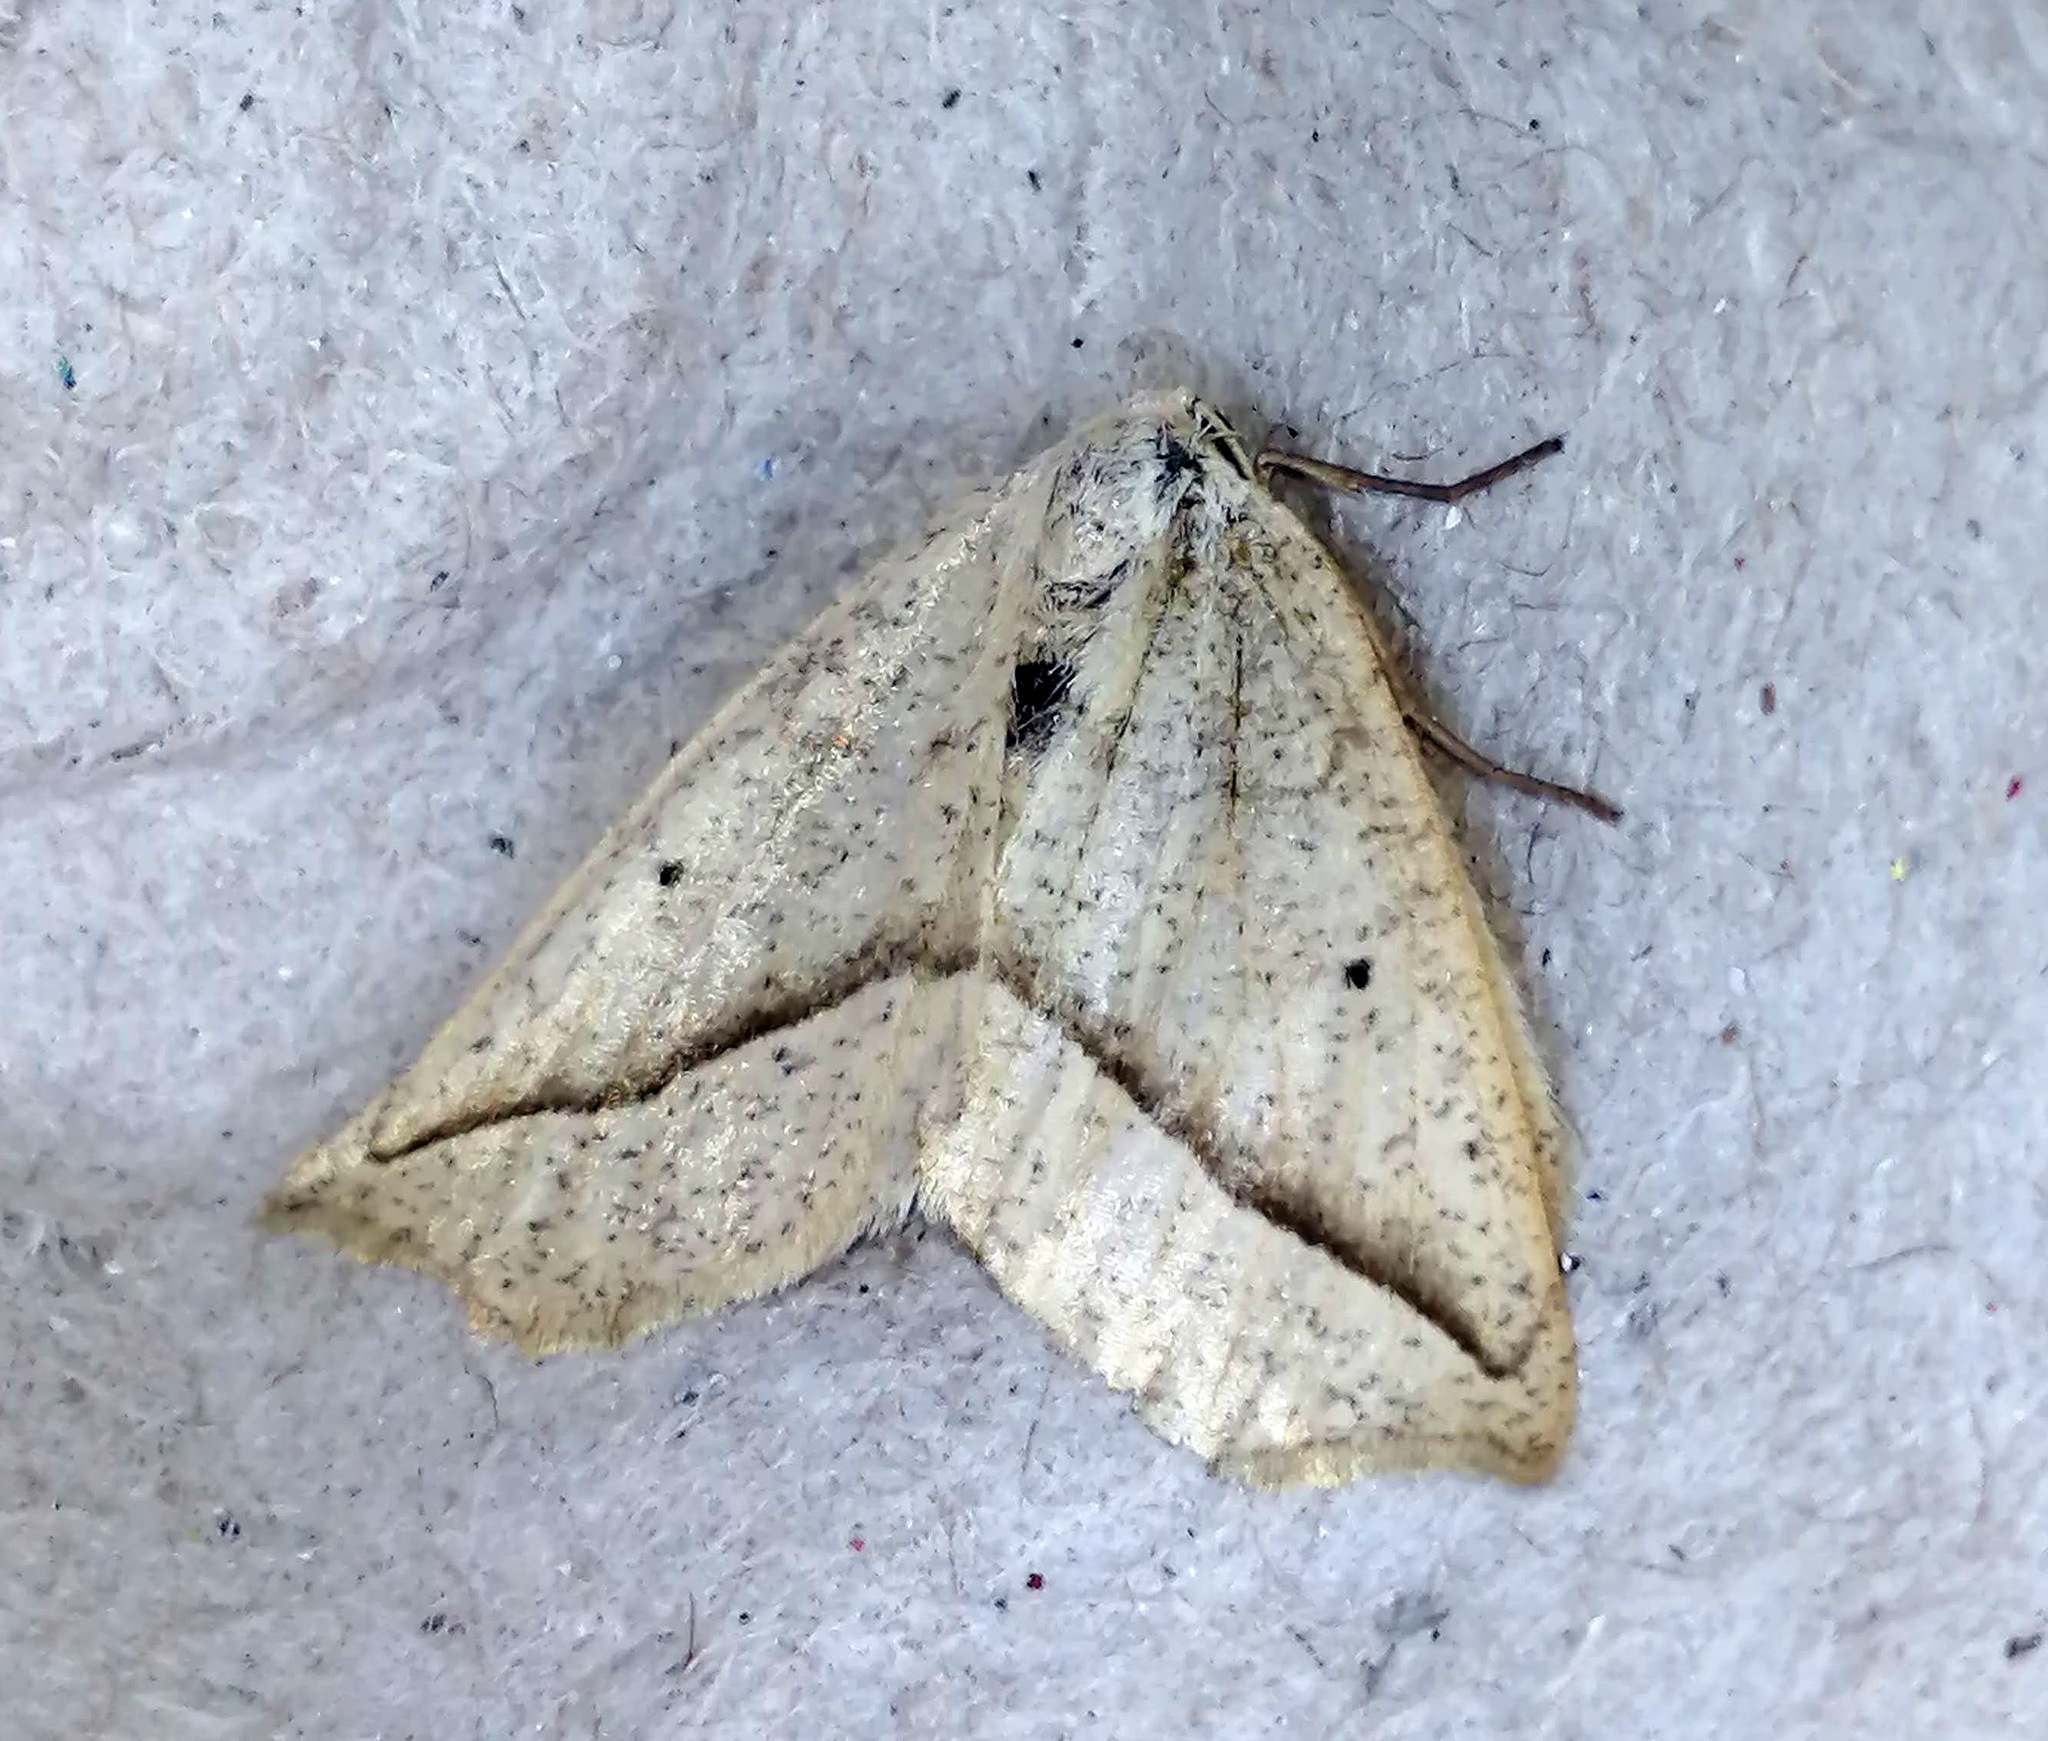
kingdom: Animalia
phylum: Arthropoda
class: Insecta
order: Lepidoptera
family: Geometridae
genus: Eusarca
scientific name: Eusarca confusaria
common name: Confused eusarca
